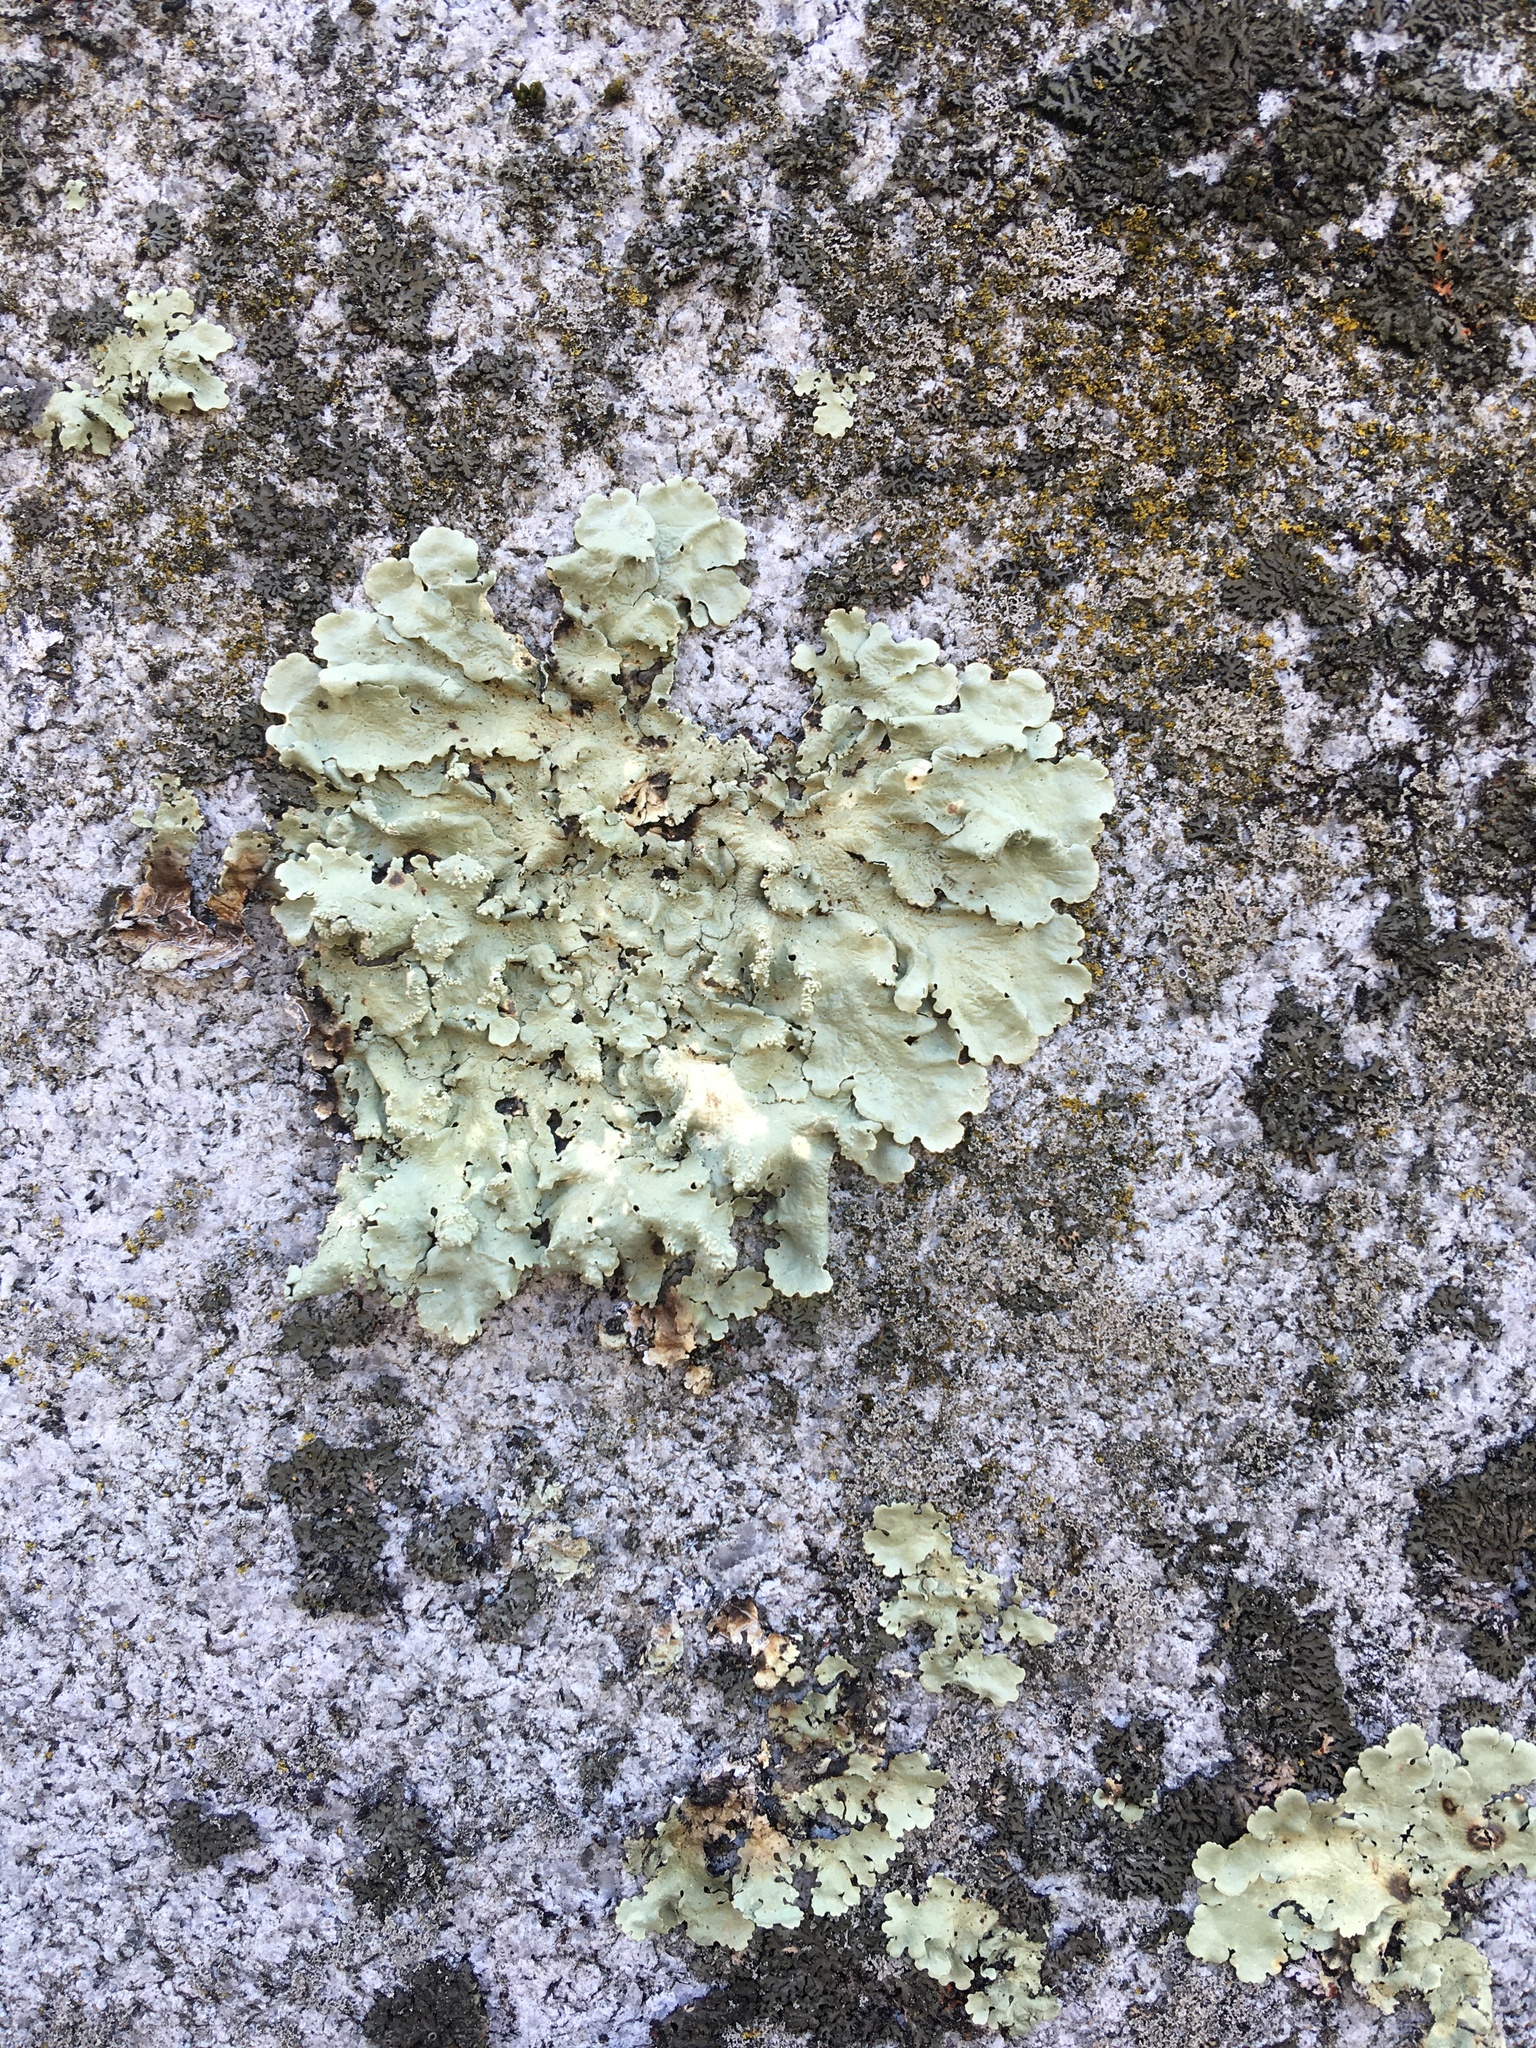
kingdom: Fungi
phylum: Ascomycota
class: Lecanoromycetes
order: Lecanorales
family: Parmeliaceae
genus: Flavoparmelia
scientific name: Flavoparmelia caperata
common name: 40-mile per hour lichen
